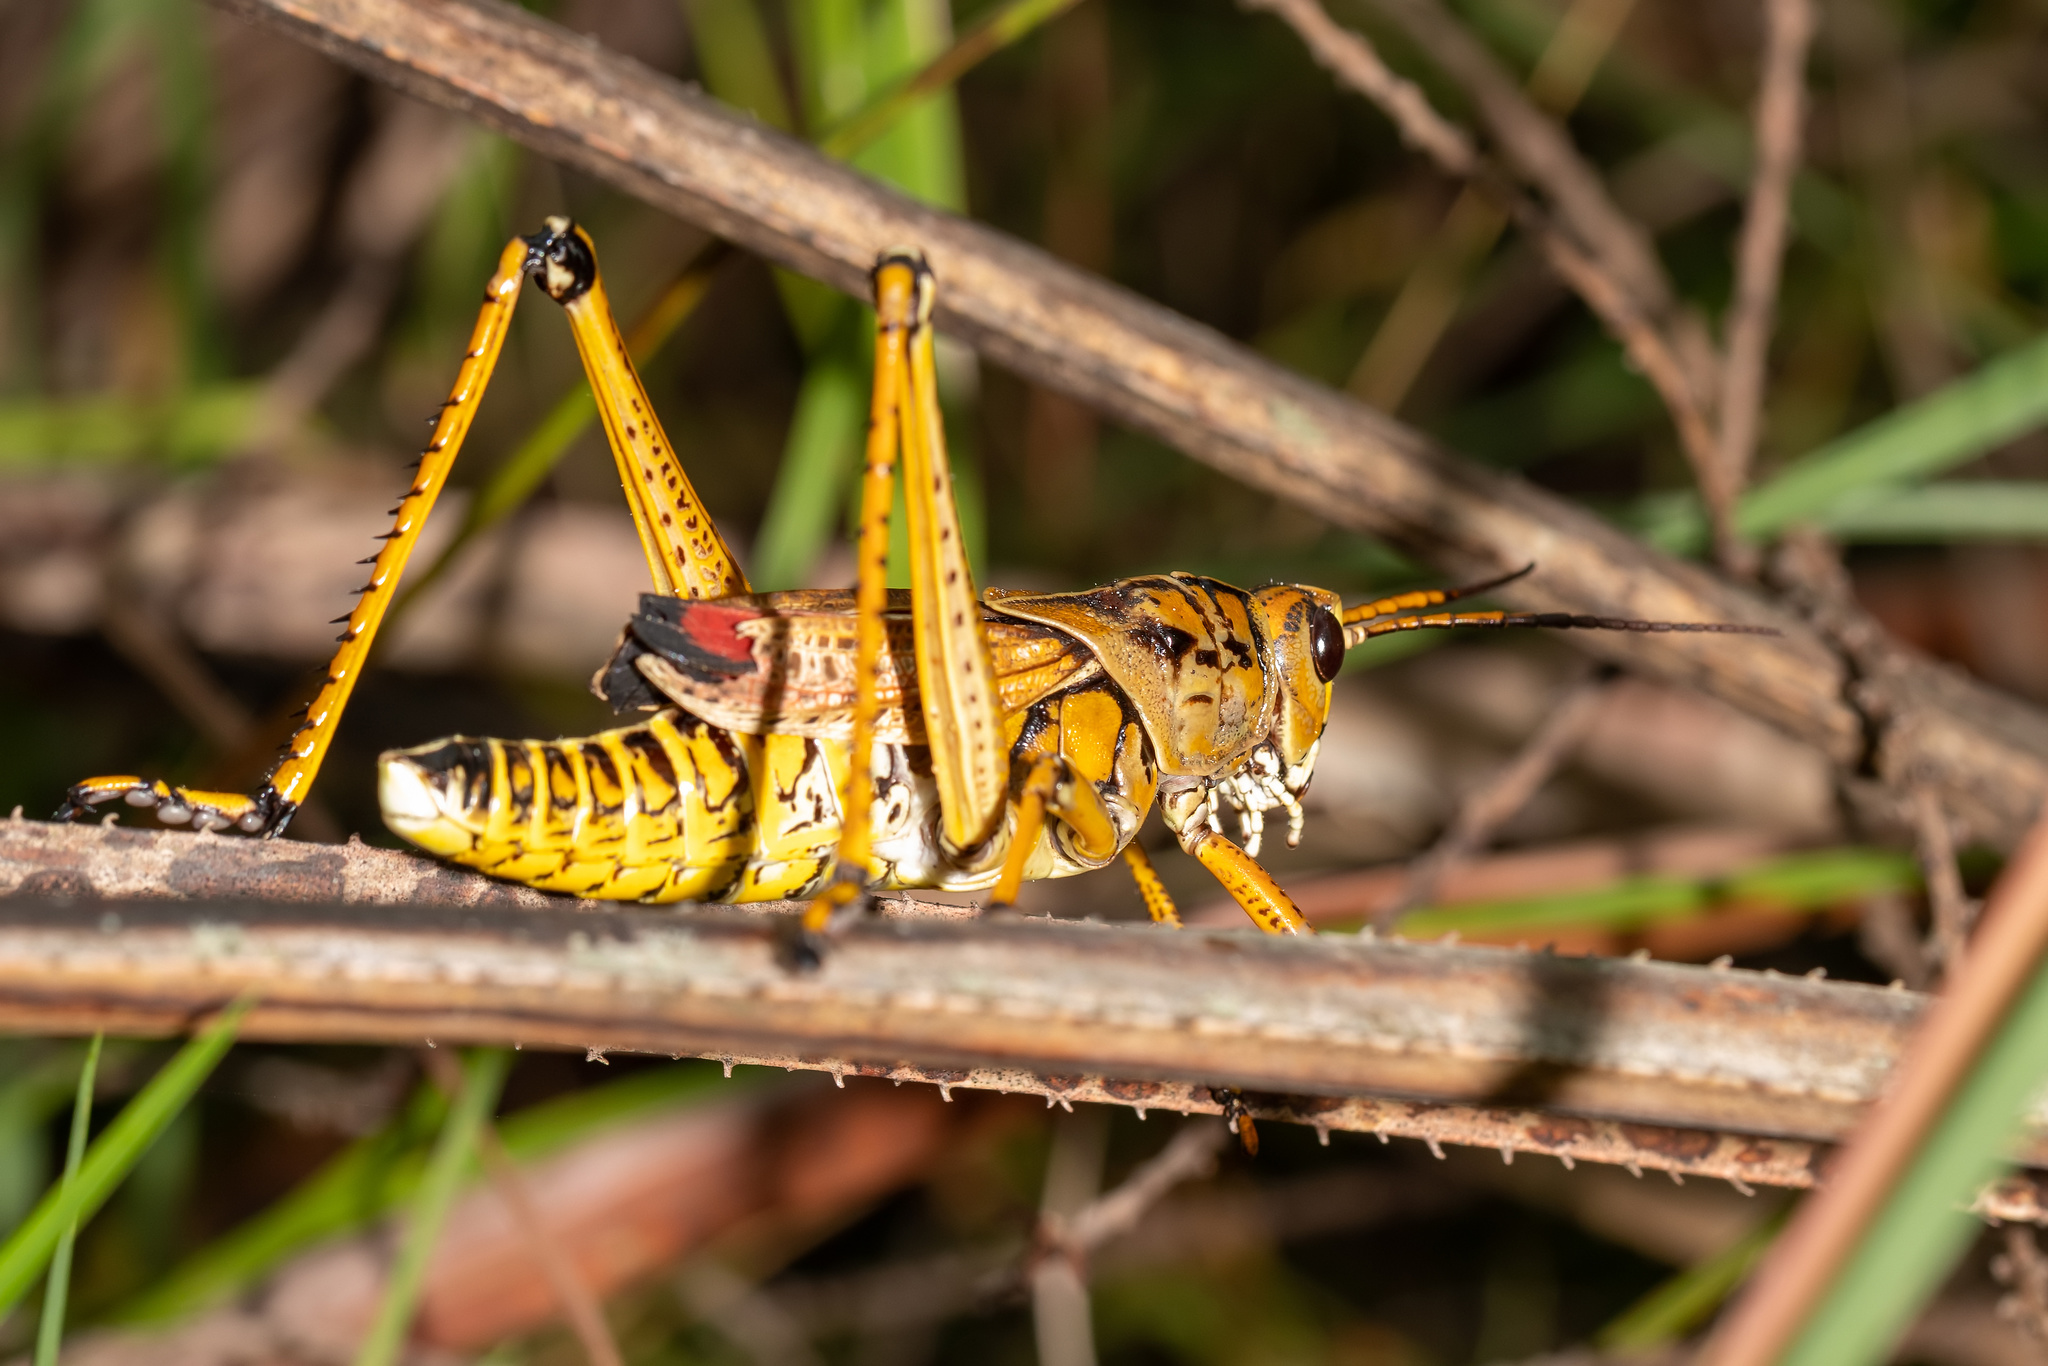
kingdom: Animalia
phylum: Arthropoda
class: Insecta
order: Orthoptera
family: Romaleidae
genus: Romalea
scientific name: Romalea microptera
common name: Eastern lubber grasshopper
